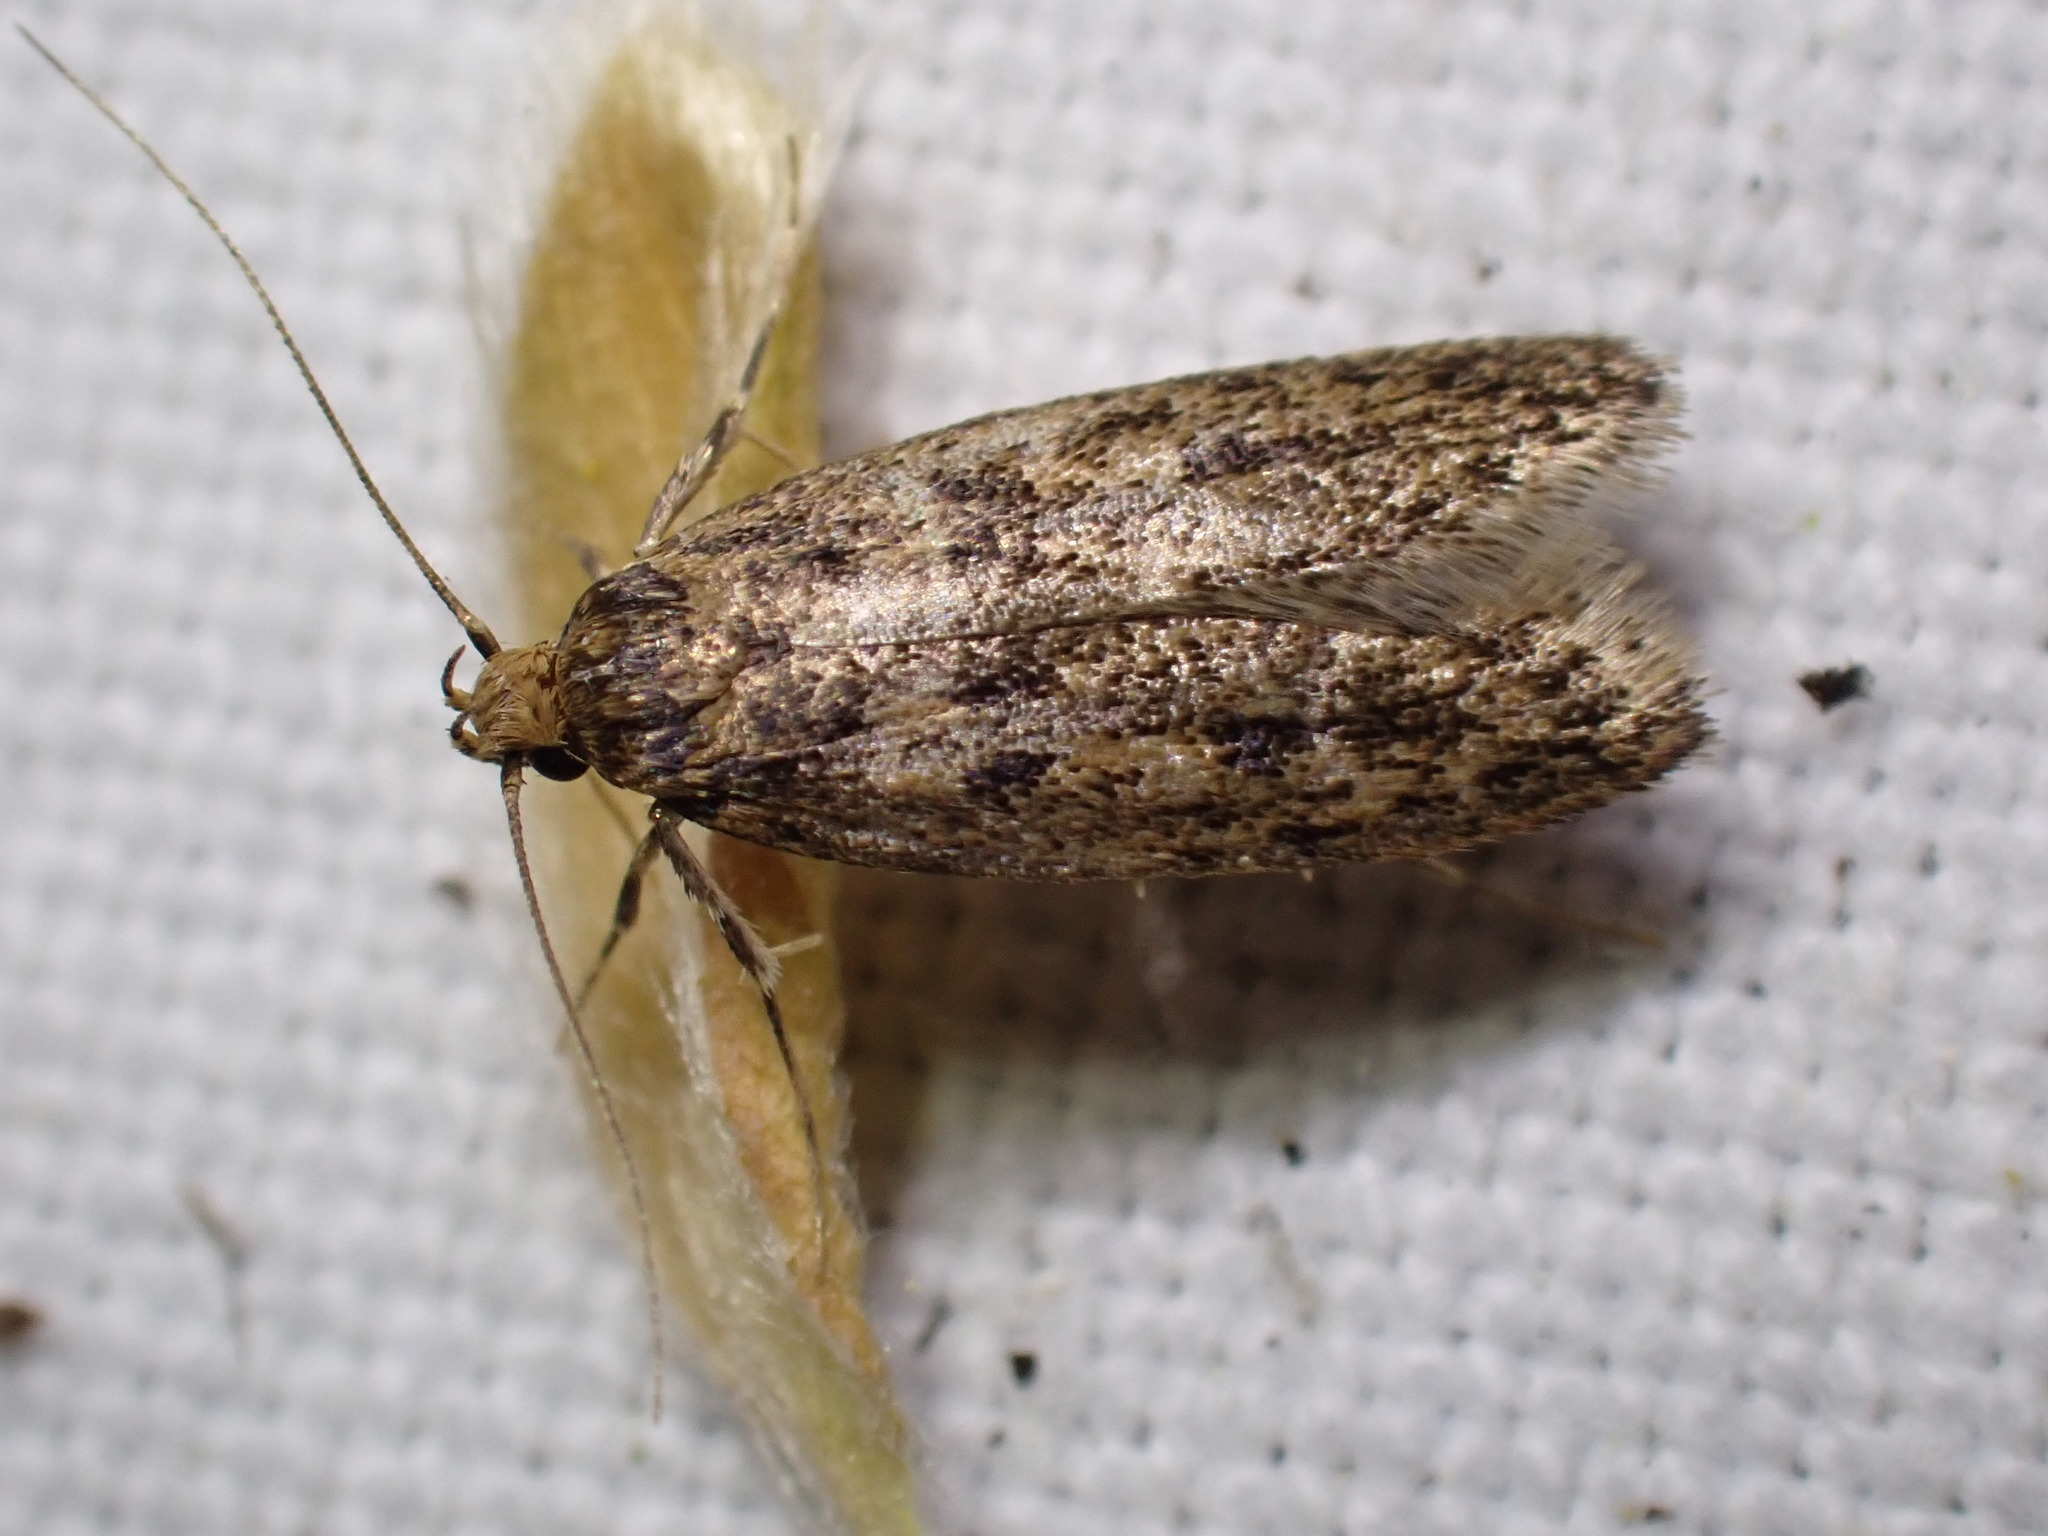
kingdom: Animalia
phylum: Arthropoda
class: Insecta
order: Lepidoptera
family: Oecophoridae
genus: Hofmannophila
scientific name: Hofmannophila pseudospretella
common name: Brown house moth
